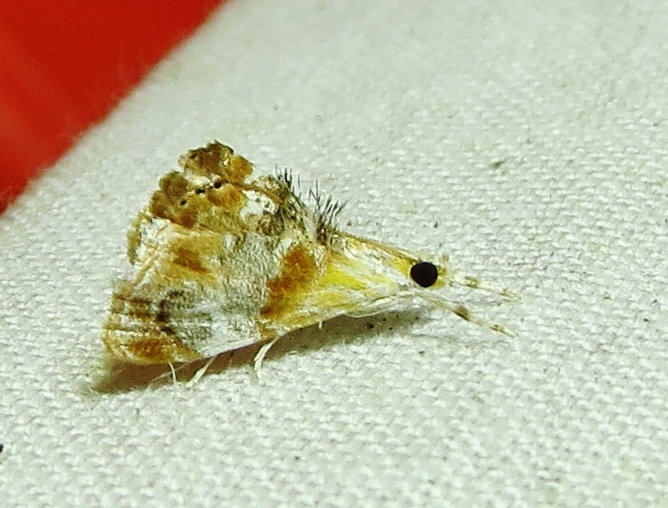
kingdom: Animalia
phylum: Arthropoda
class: Insecta
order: Lepidoptera
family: Crambidae
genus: Dicymolomia
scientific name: Dicymolomia julianalis
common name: Julia's dicymolomia moth
